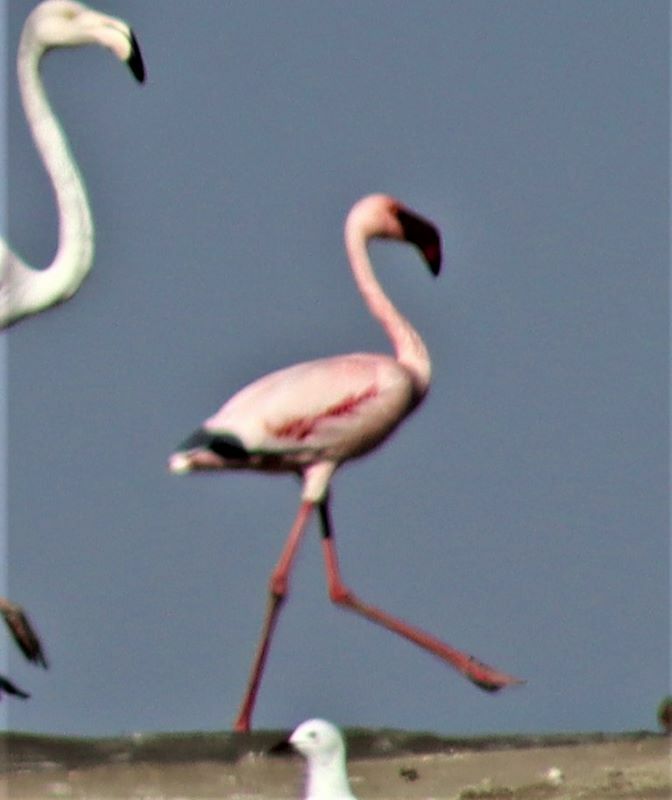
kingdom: Animalia
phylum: Chordata
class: Aves
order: Phoenicopteriformes
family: Phoenicopteridae
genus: Phoeniconaias
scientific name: Phoeniconaias minor
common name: Lesser flamingo
